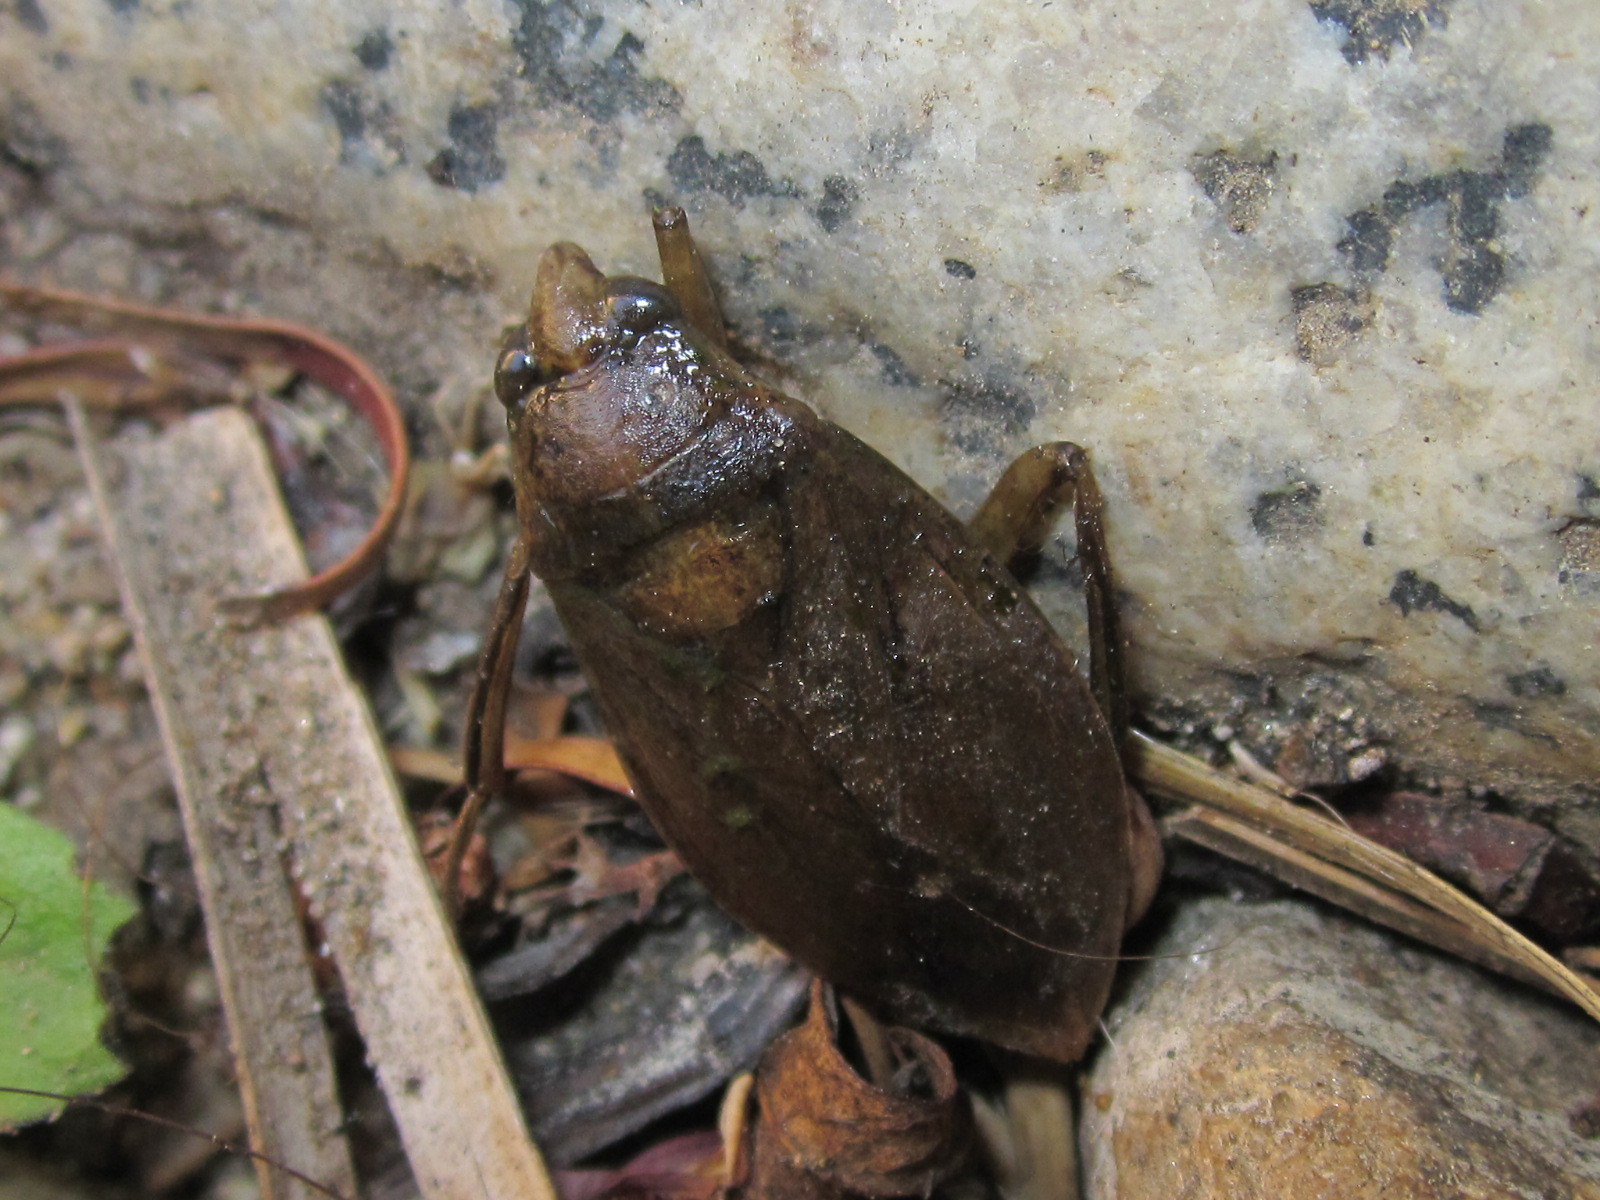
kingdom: Animalia
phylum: Arthropoda
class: Insecta
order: Hemiptera
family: Belostomatidae
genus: Belostoma
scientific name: Belostoma bifoveolatum
